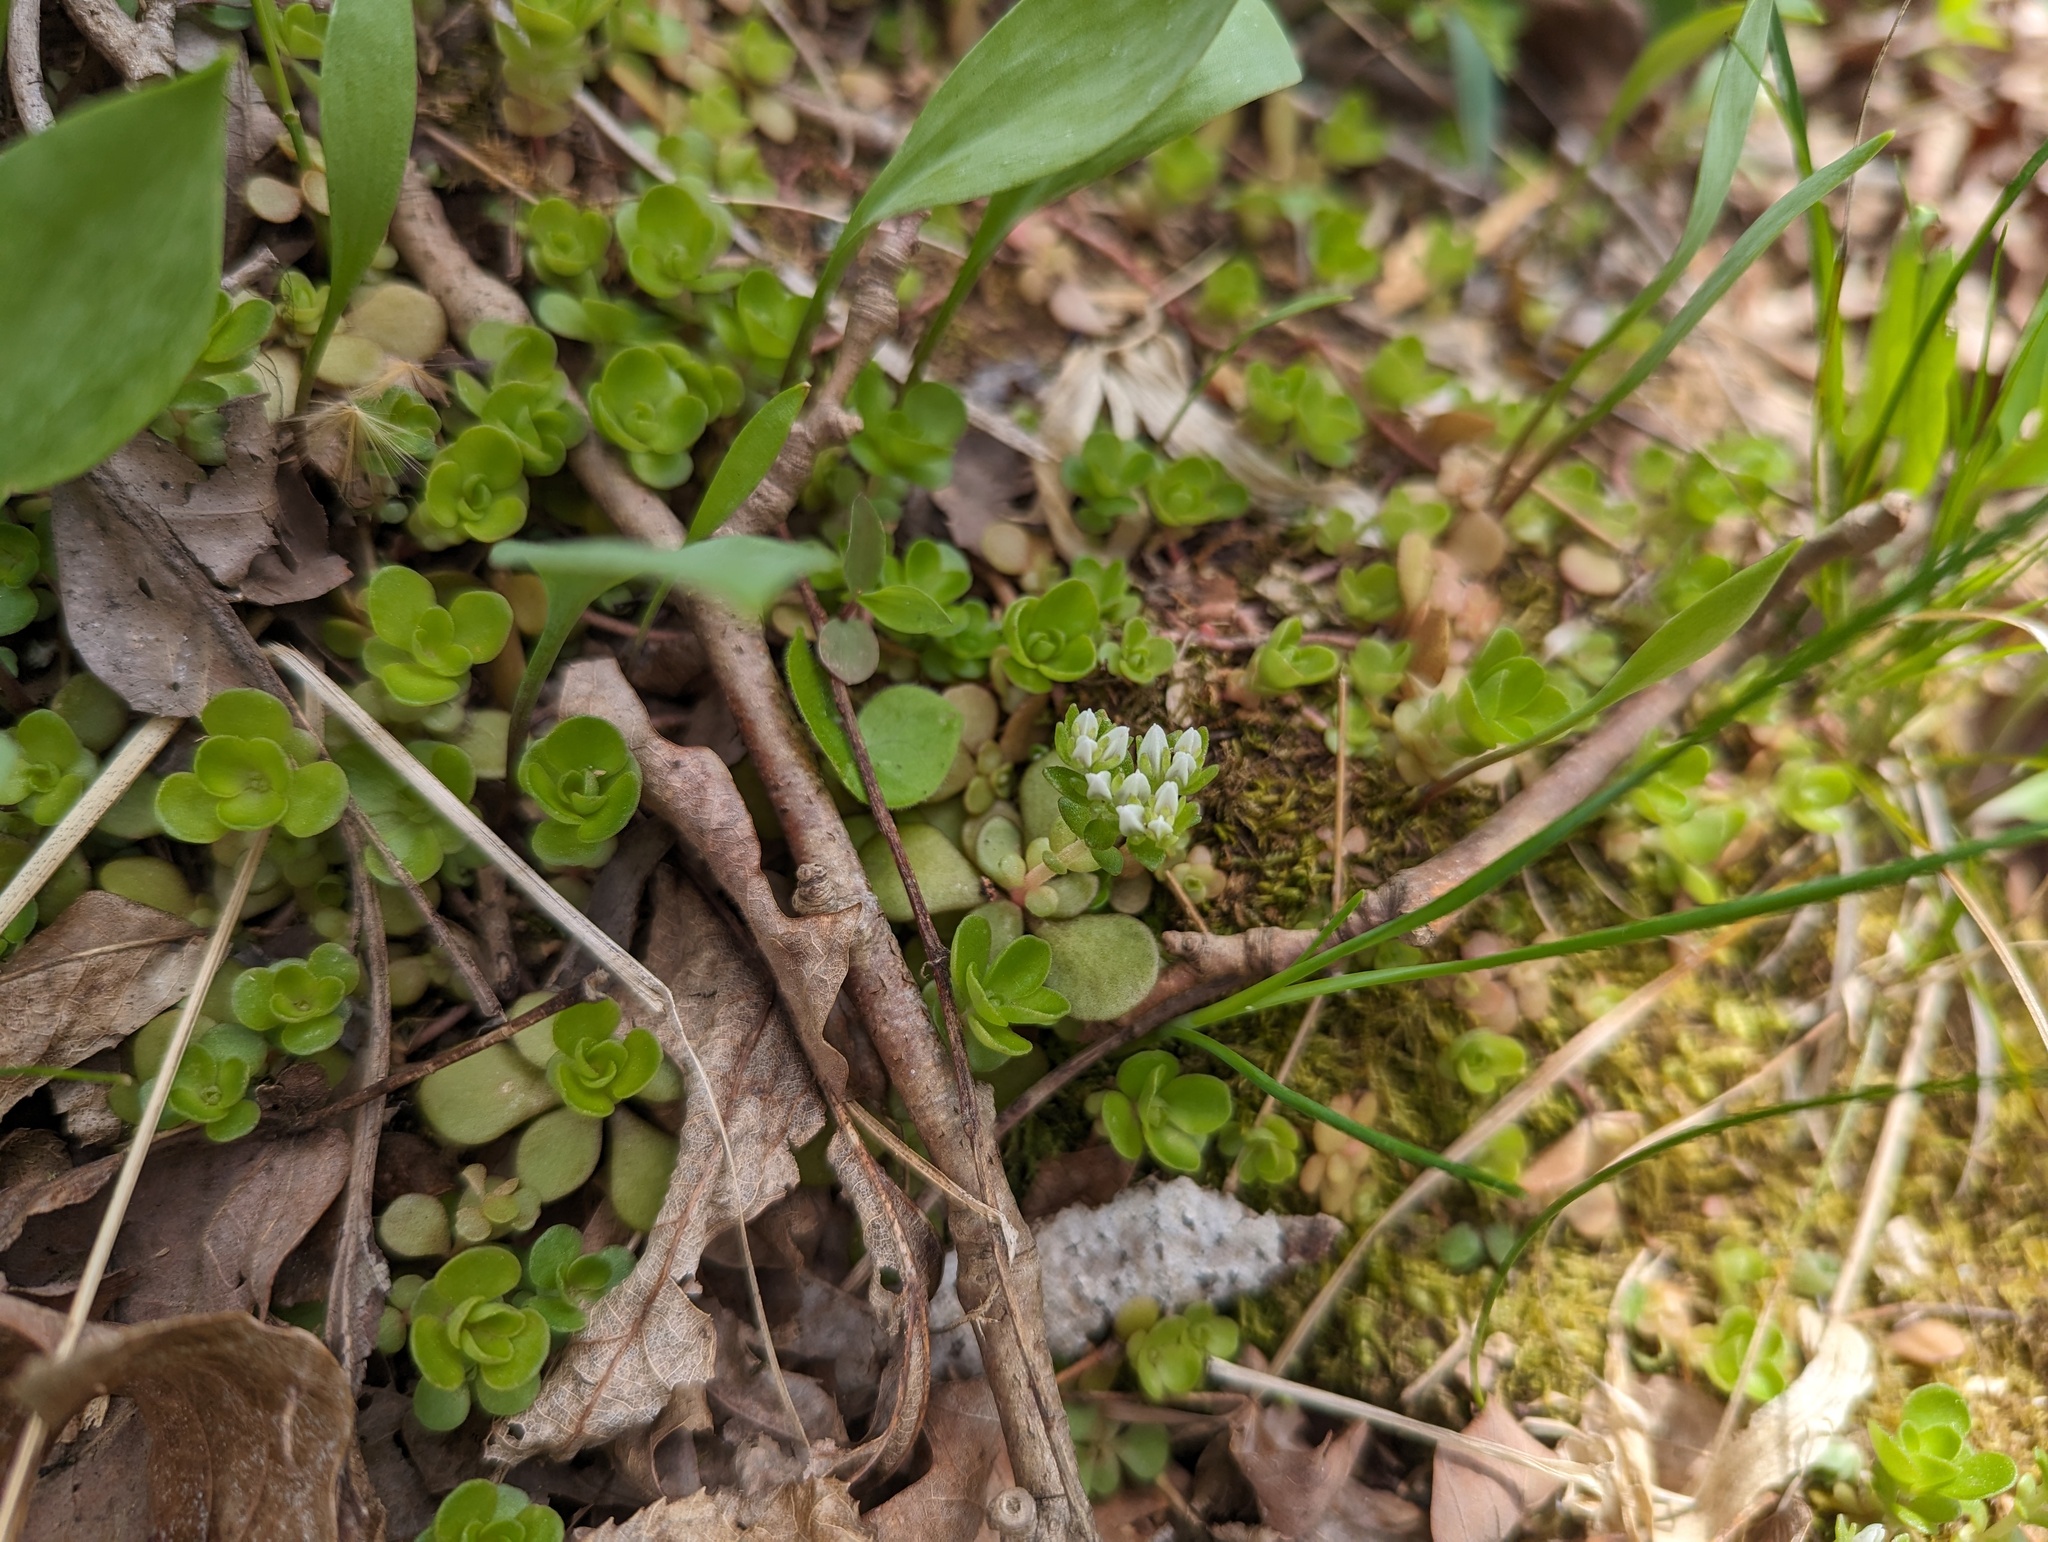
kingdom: Plantae
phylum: Tracheophyta
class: Magnoliopsida
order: Saxifragales
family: Crassulaceae
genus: Sedum
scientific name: Sedum ternatum
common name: Wild stonecrop
